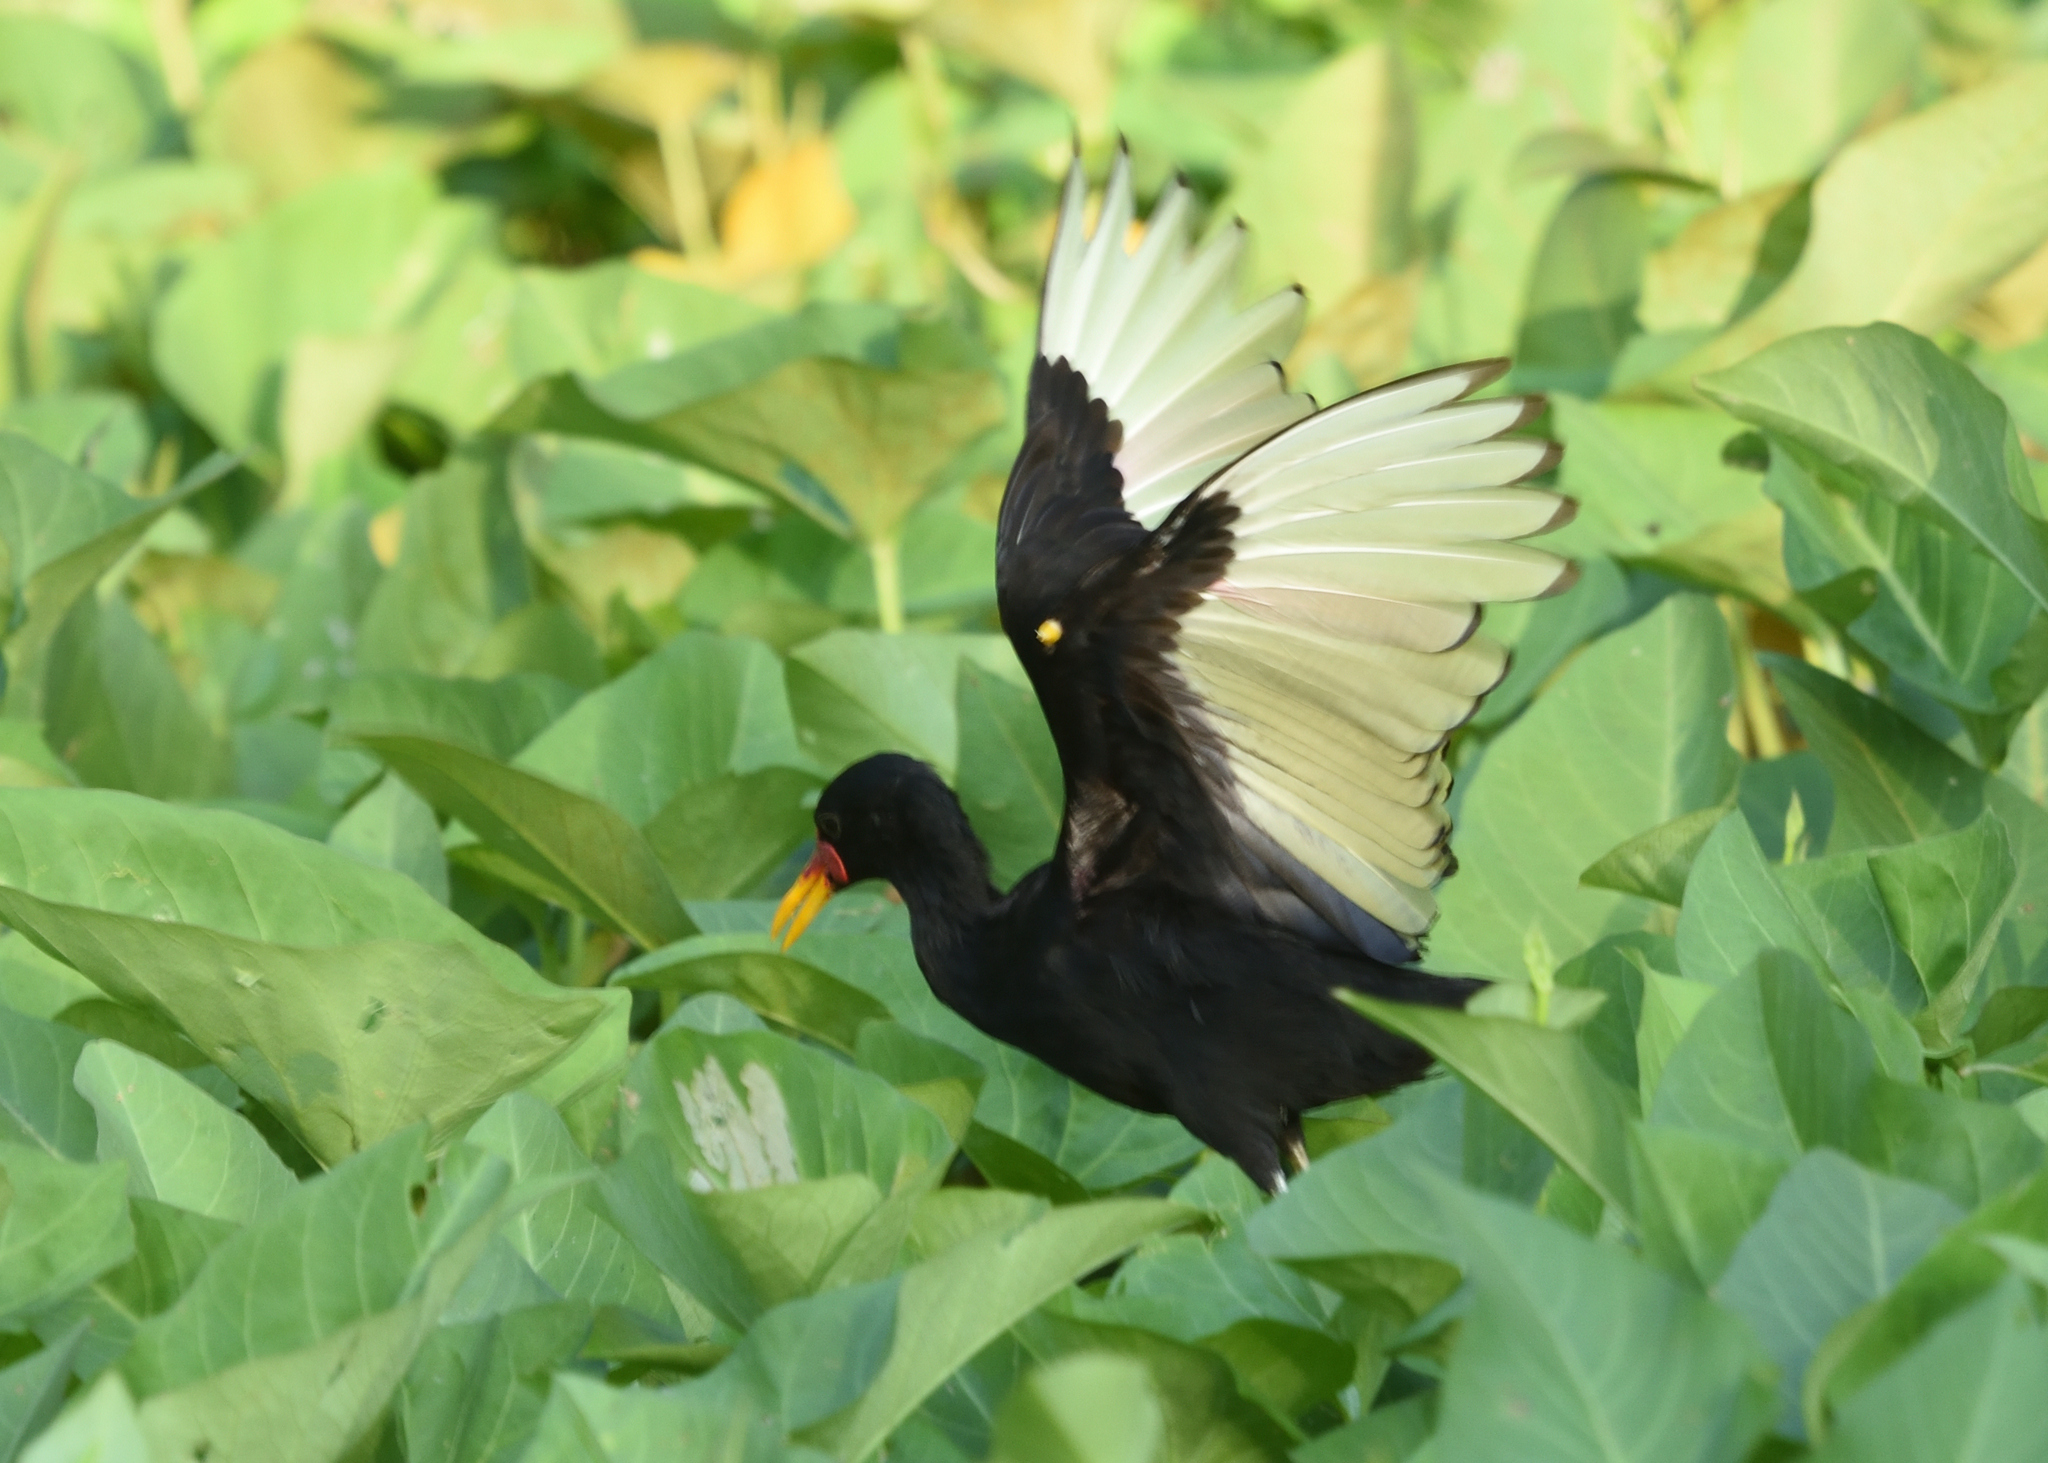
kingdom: Animalia
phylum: Chordata
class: Aves
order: Charadriiformes
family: Jacanidae
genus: Jacana
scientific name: Jacana jacana
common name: Wattled jacana
